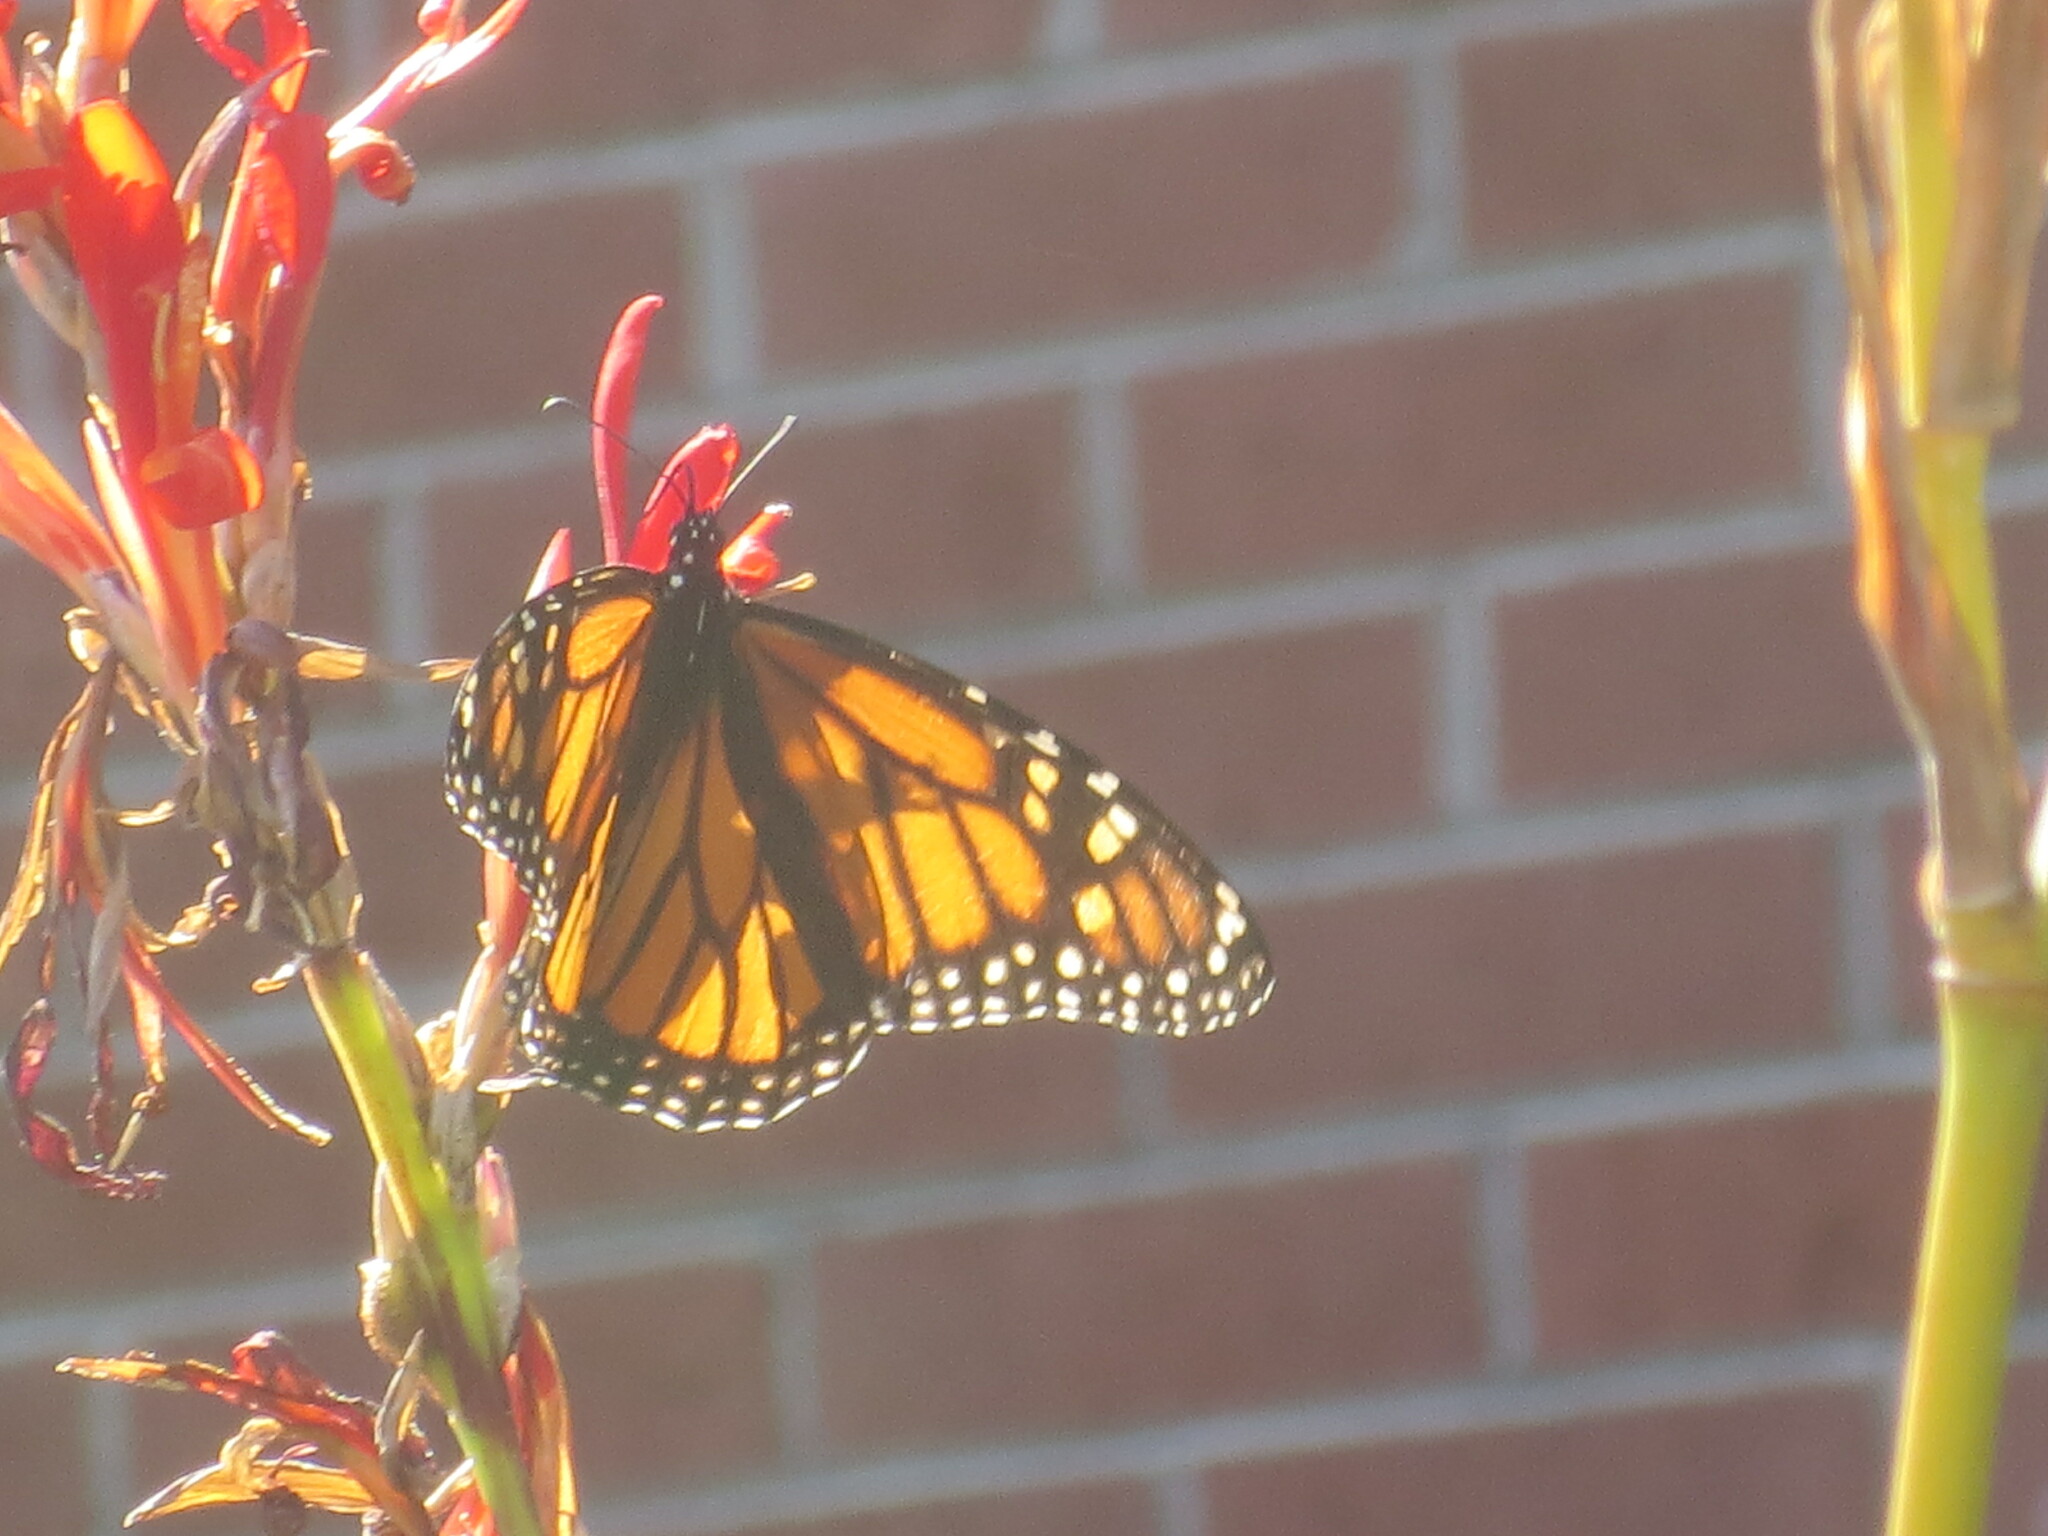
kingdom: Animalia
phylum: Arthropoda
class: Insecta
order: Lepidoptera
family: Nymphalidae
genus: Danaus
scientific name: Danaus plexippus
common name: Monarch
